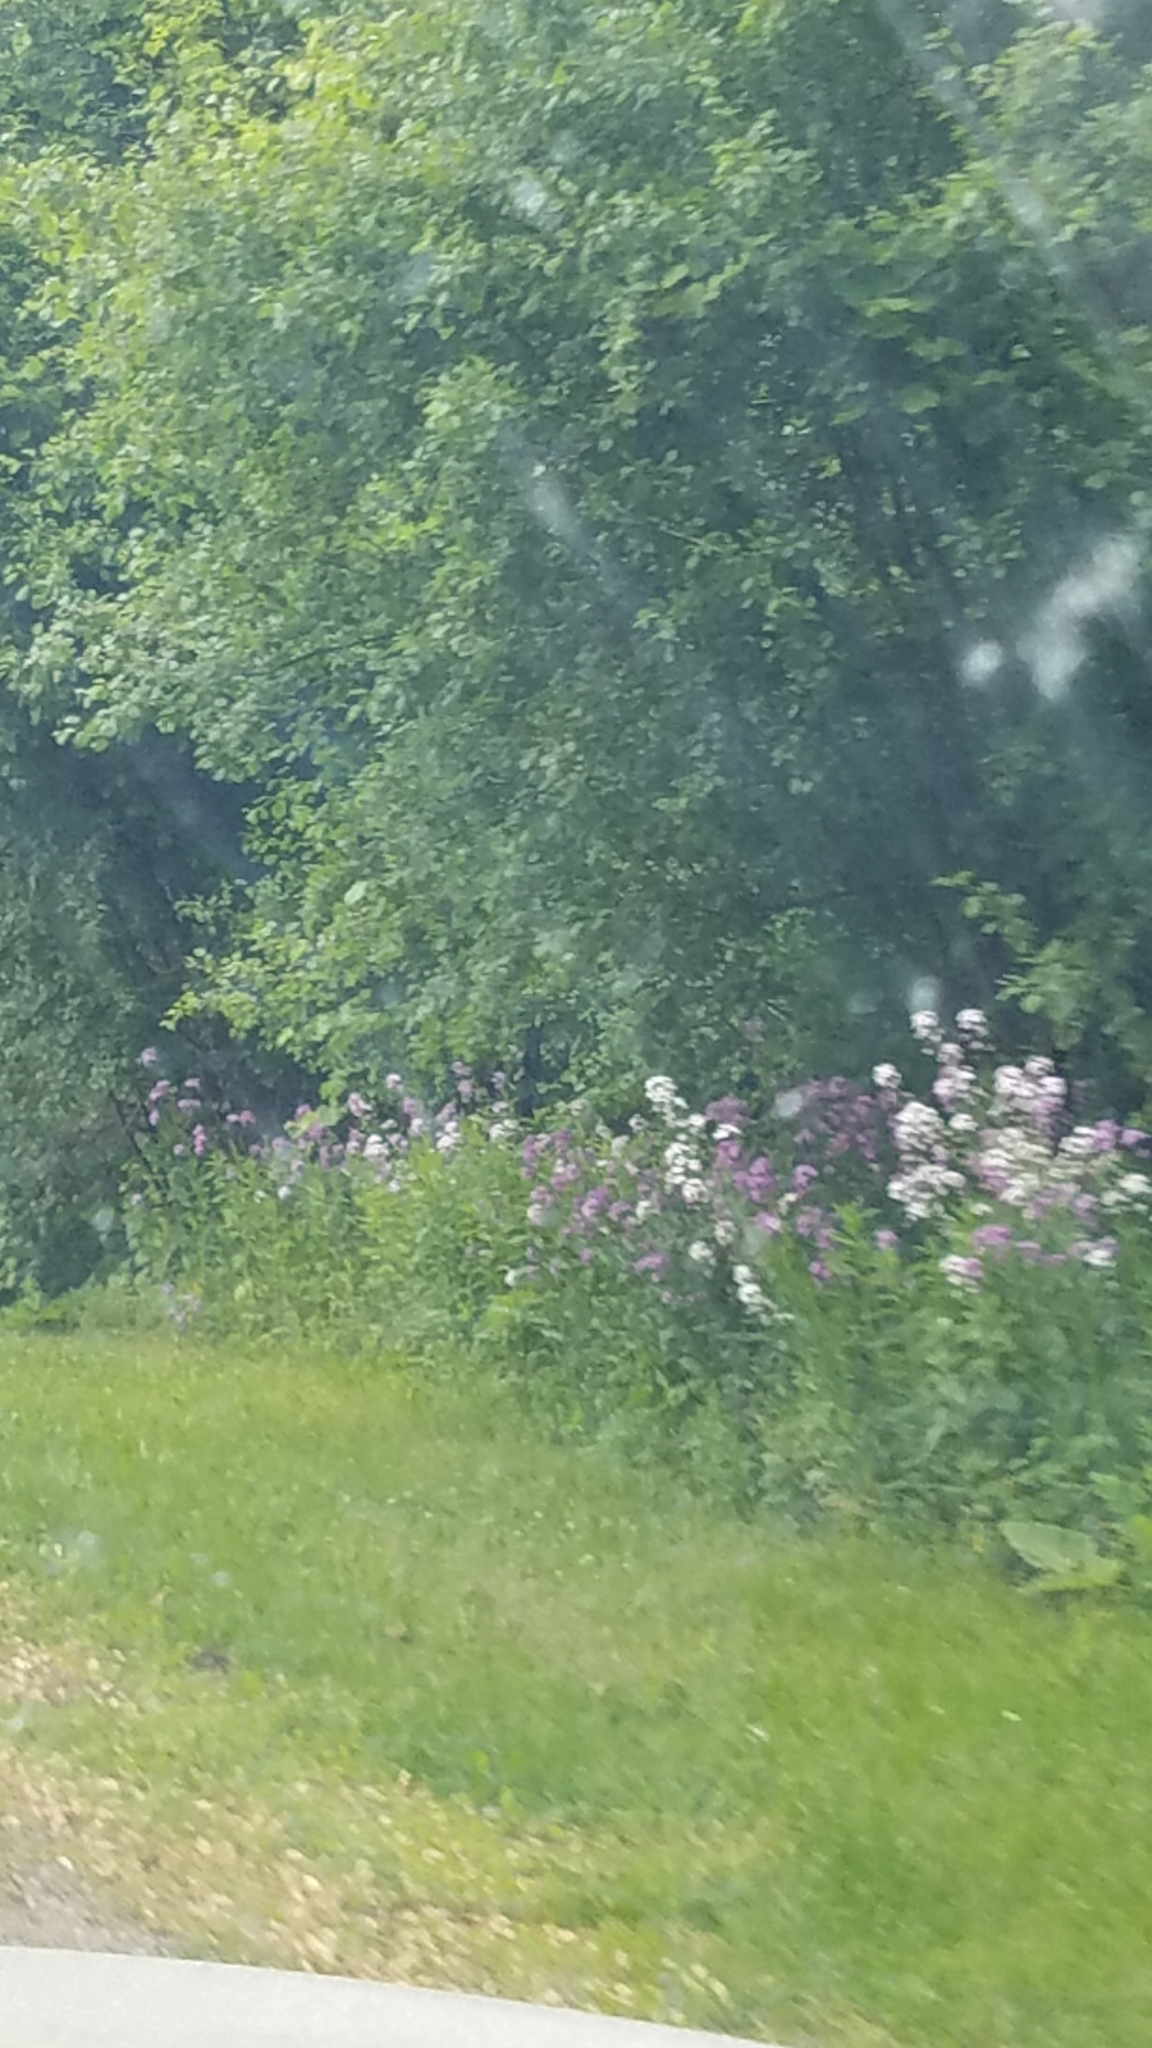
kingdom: Plantae
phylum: Tracheophyta
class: Magnoliopsida
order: Brassicales
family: Brassicaceae
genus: Hesperis
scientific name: Hesperis matronalis
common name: Dame's-violet
